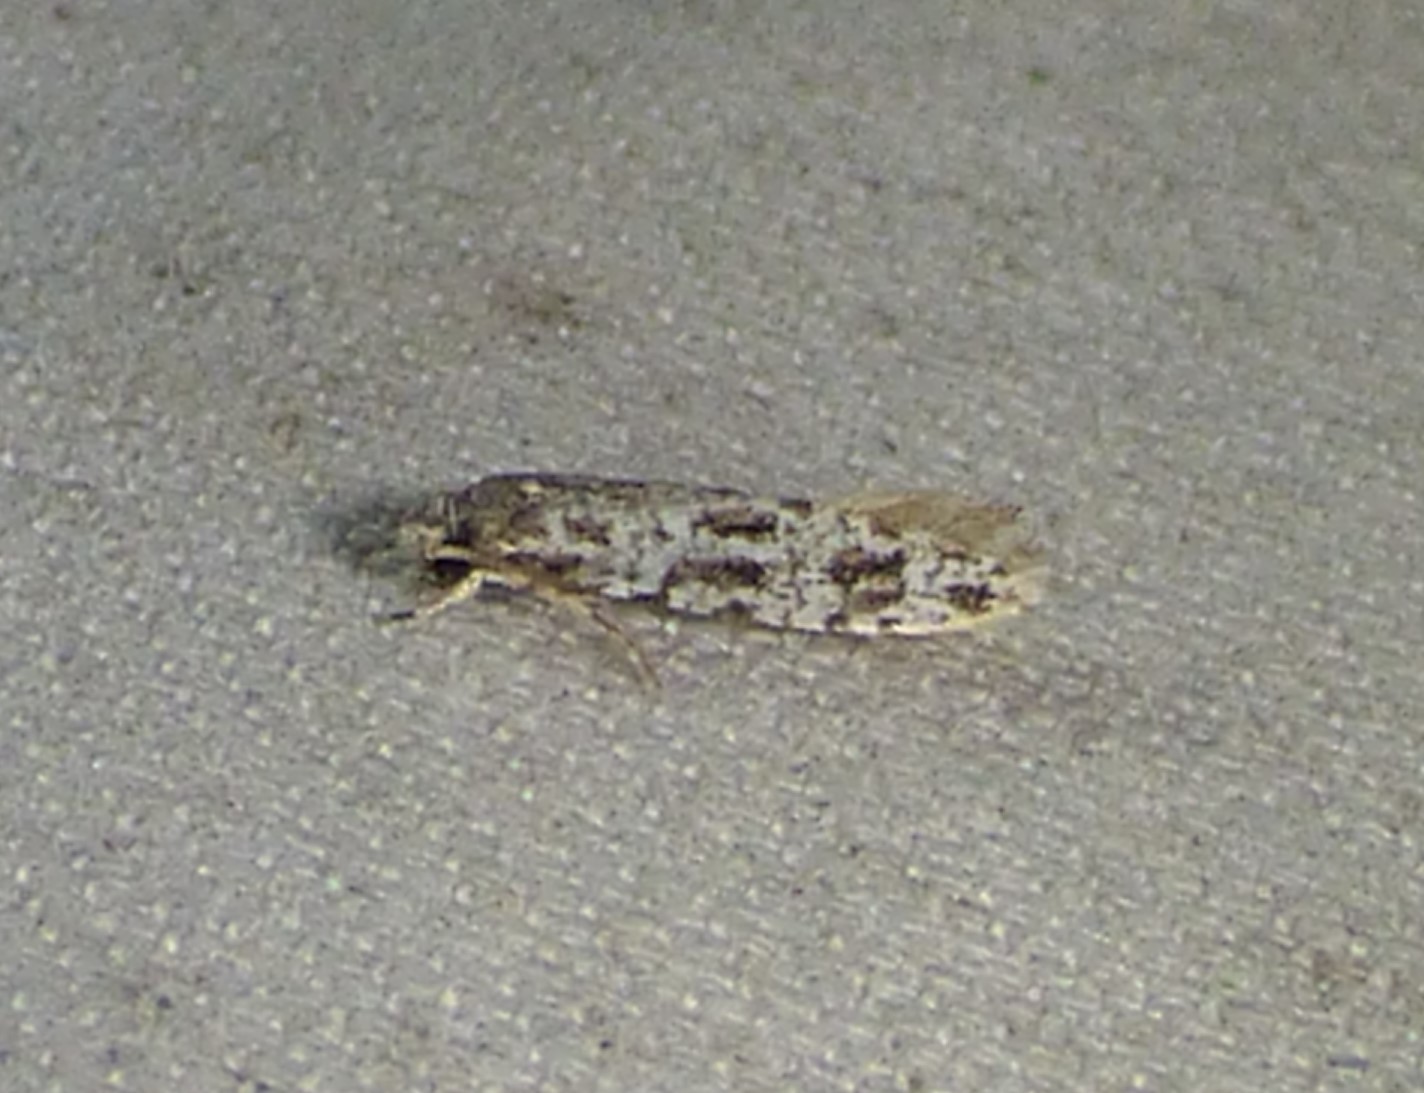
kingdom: Animalia
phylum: Arthropoda
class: Insecta
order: Lepidoptera
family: Meessiidae
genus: Diachorisia
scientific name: Diachorisia velatella
